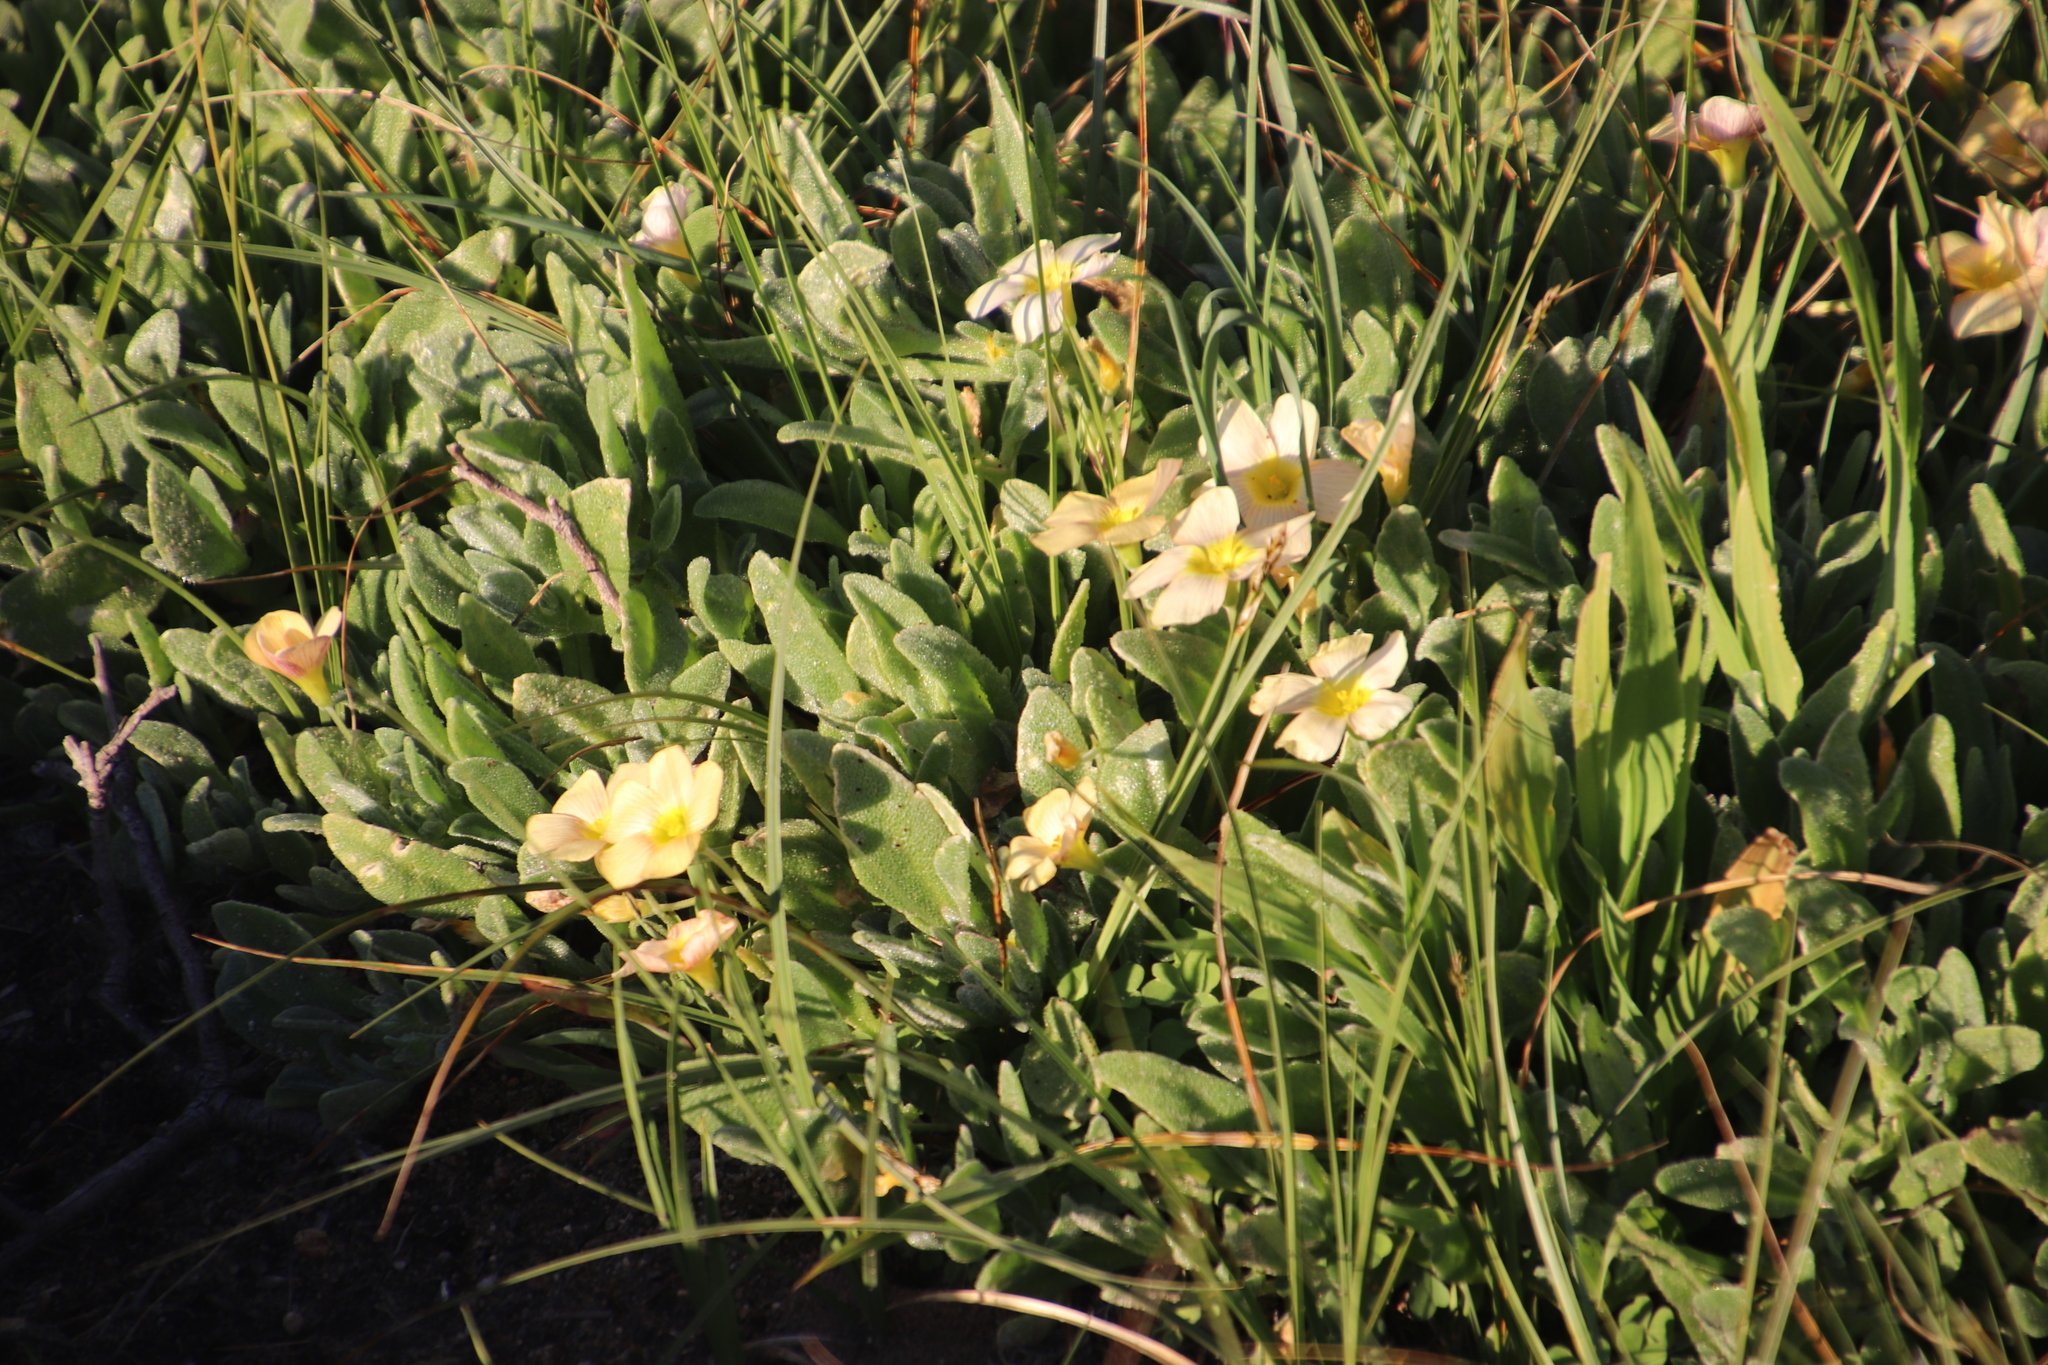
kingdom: Plantae
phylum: Tracheophyta
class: Magnoliopsida
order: Oxalidales
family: Oxalidaceae
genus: Oxalis
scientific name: Oxalis obtusa
